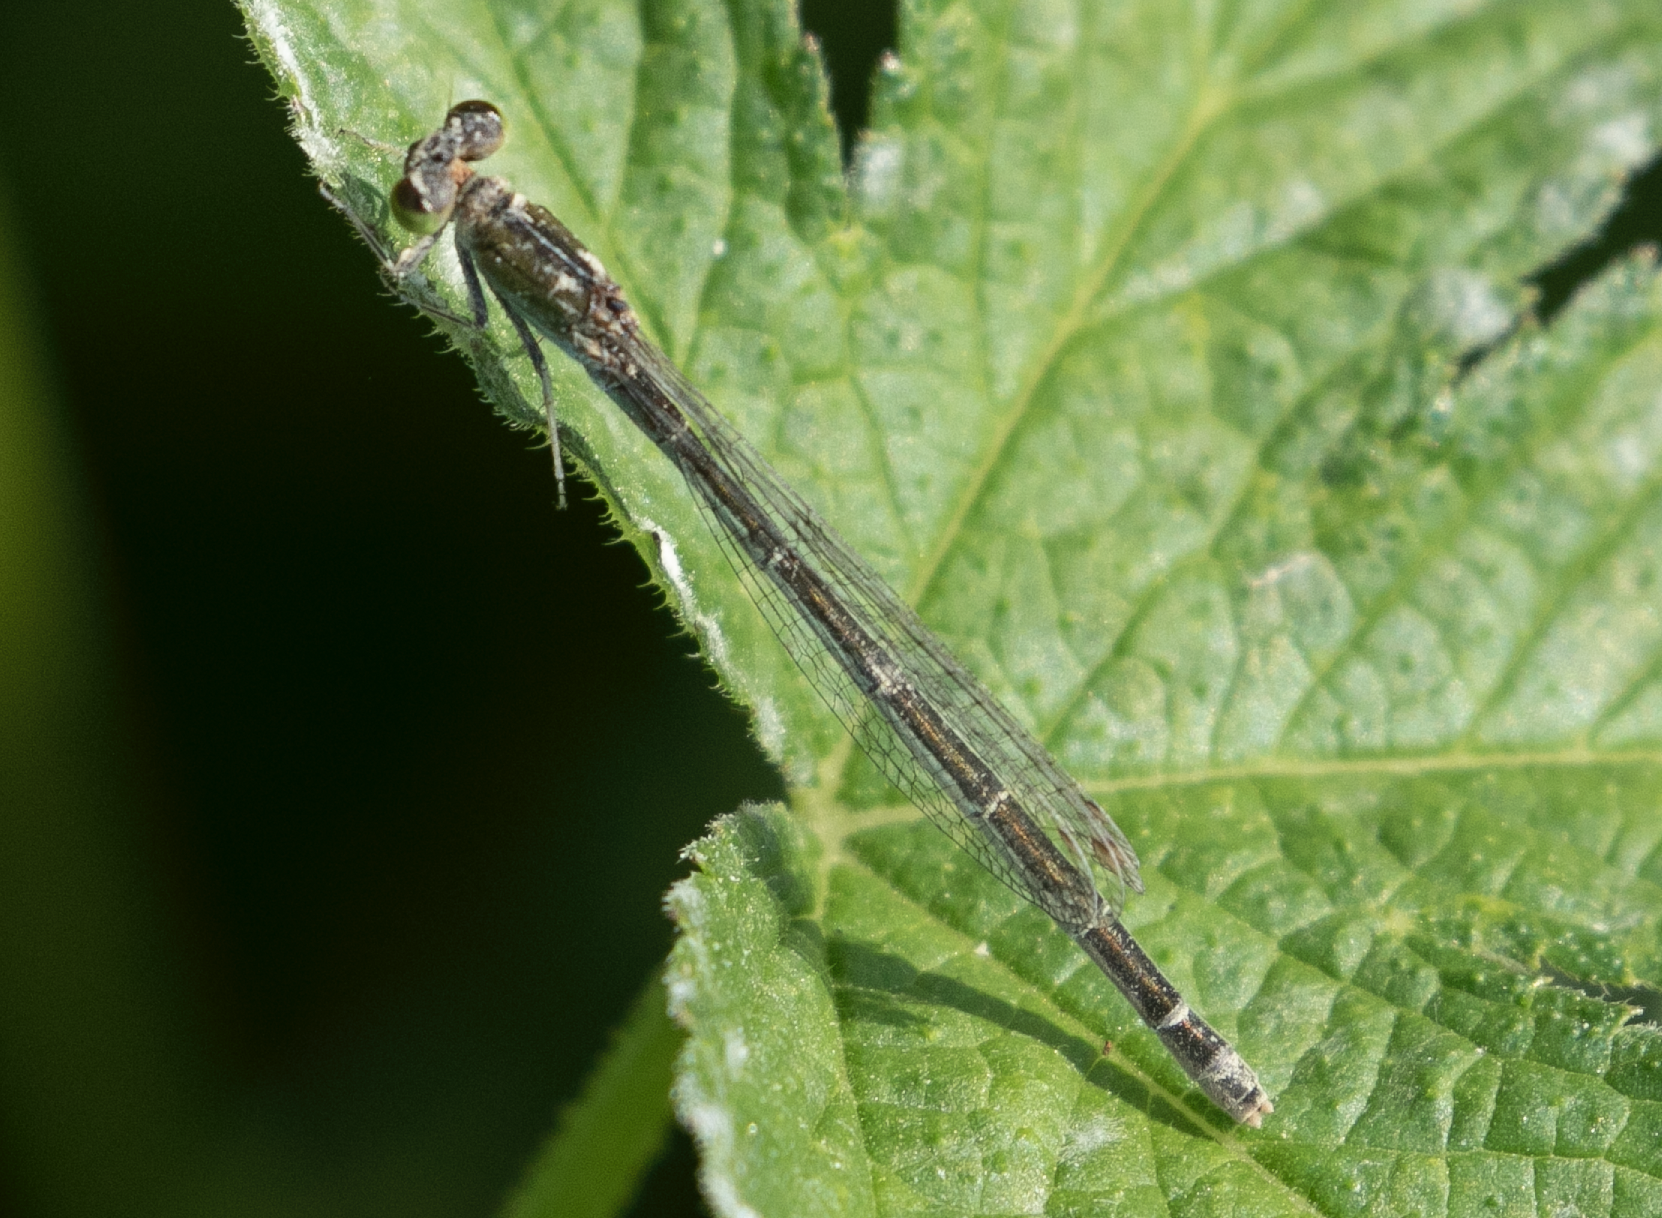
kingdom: Animalia
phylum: Arthropoda
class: Insecta
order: Odonata
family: Coenagrionidae
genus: Ischnura
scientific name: Ischnura pumilio
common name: Scarce blue-tailed damselfly
